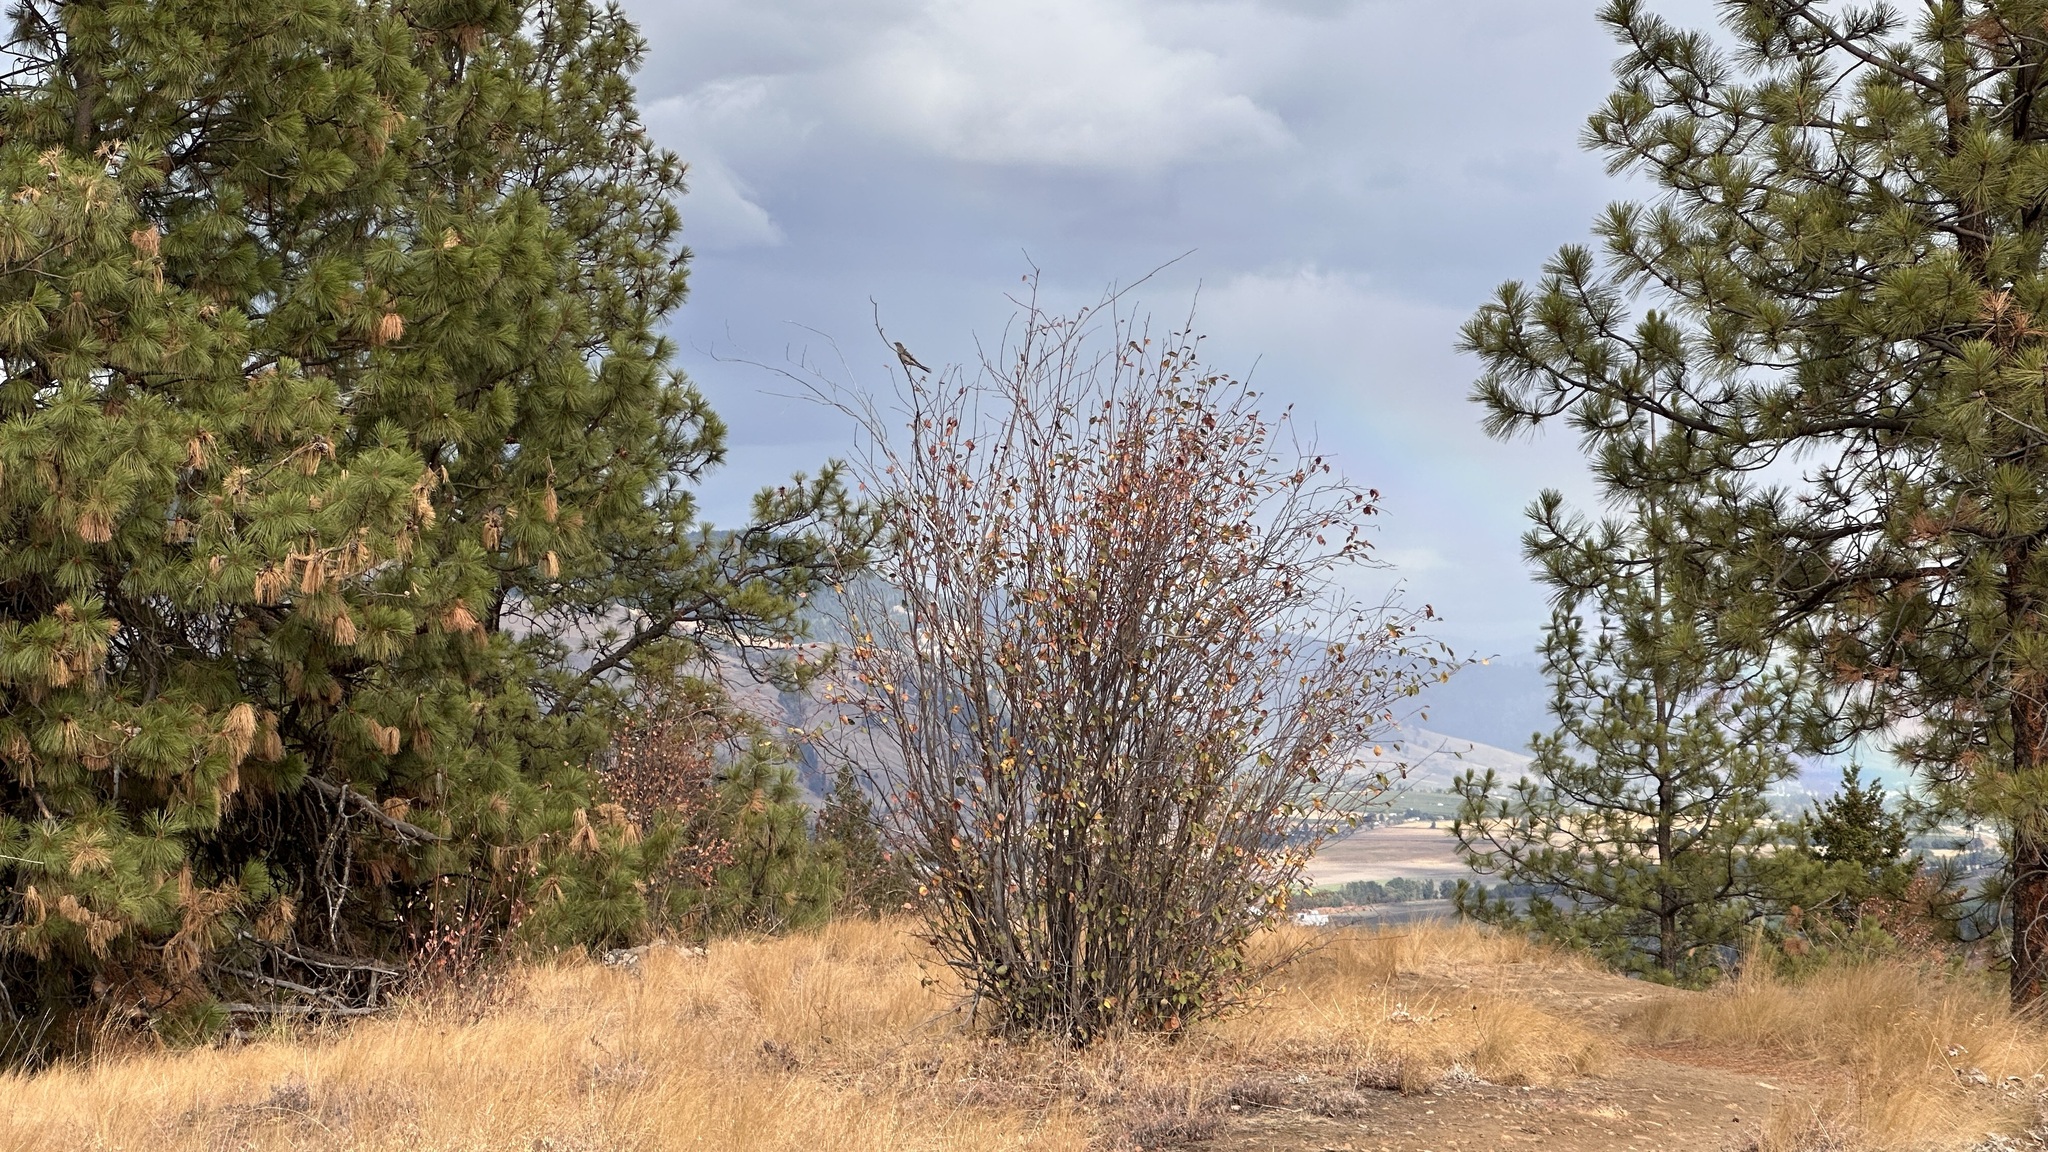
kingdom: Animalia
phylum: Chordata
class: Aves
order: Passeriformes
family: Turdidae
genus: Myadestes
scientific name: Myadestes townsendi
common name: Townsend's solitaire
